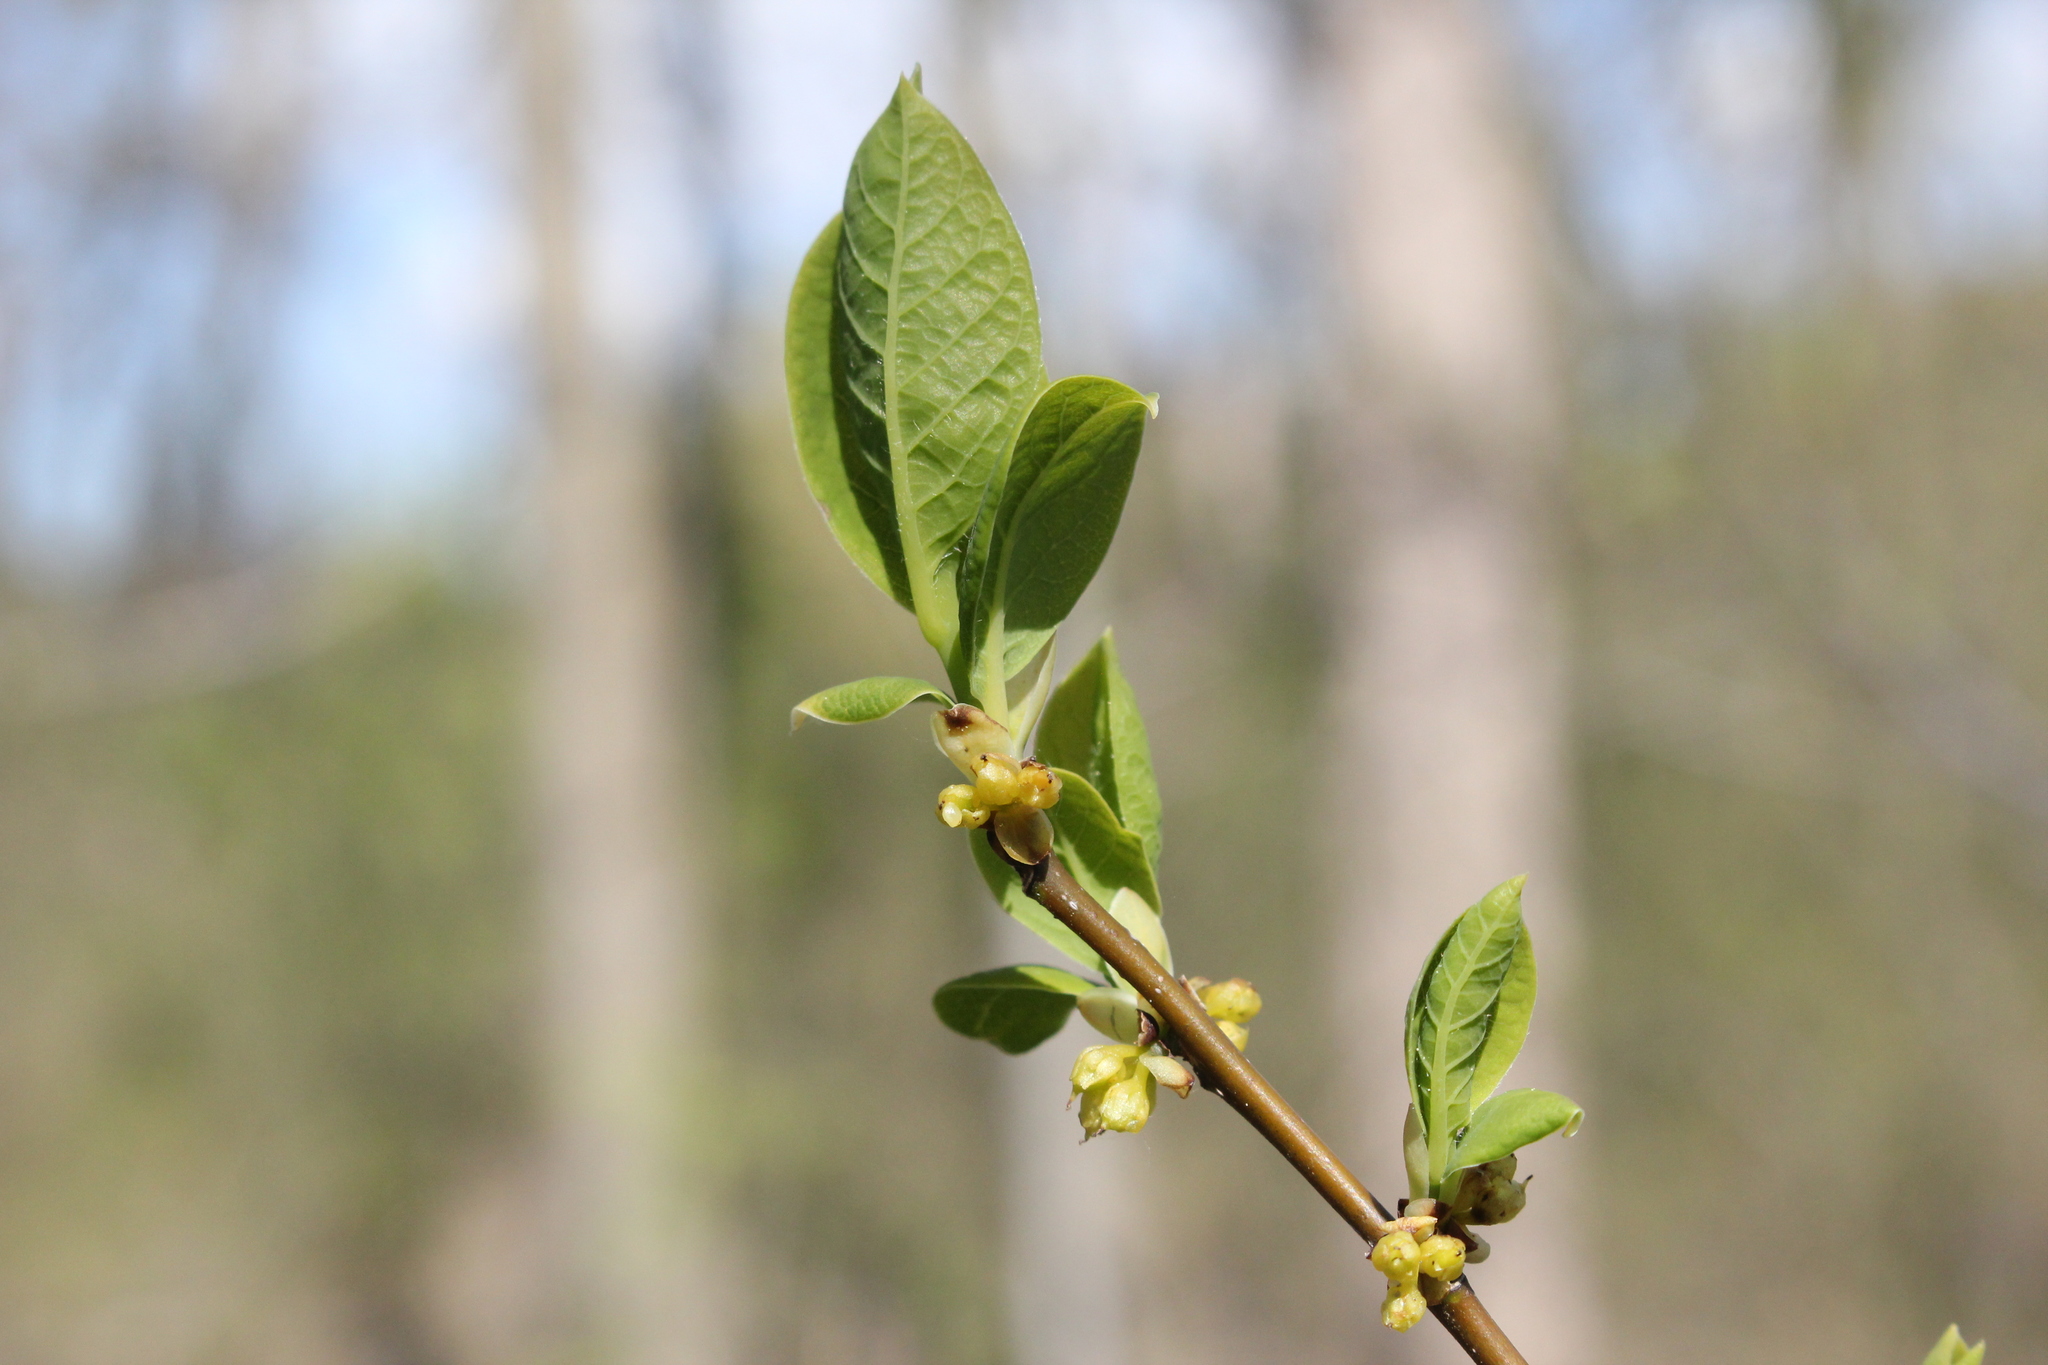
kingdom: Plantae
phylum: Tracheophyta
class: Magnoliopsida
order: Laurales
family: Lauraceae
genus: Lindera
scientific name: Lindera benzoin
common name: Spicebush
